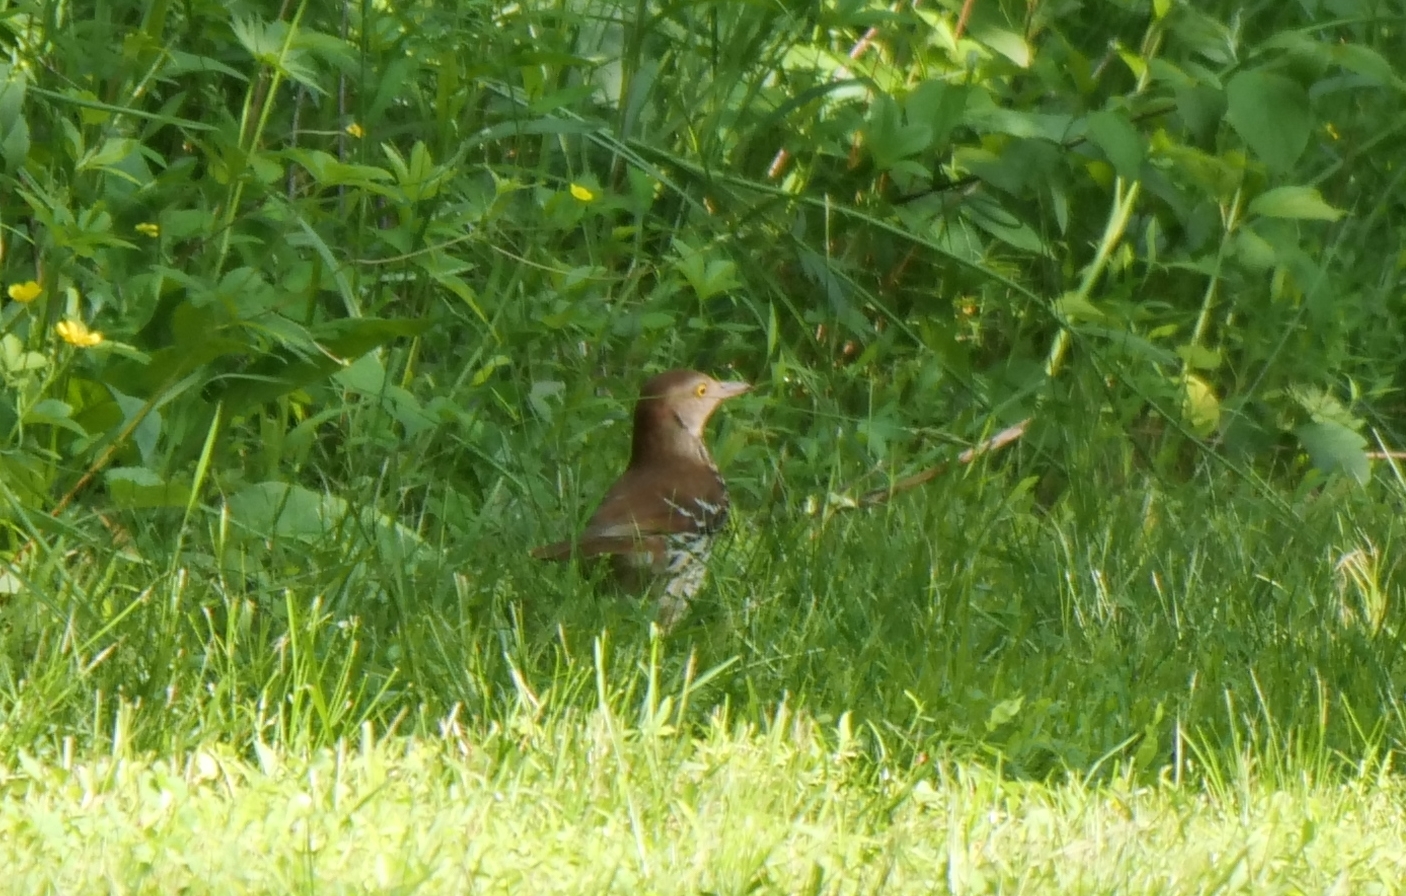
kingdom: Animalia
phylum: Chordata
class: Aves
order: Passeriformes
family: Mimidae
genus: Toxostoma
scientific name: Toxostoma rufum
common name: Brown thrasher
